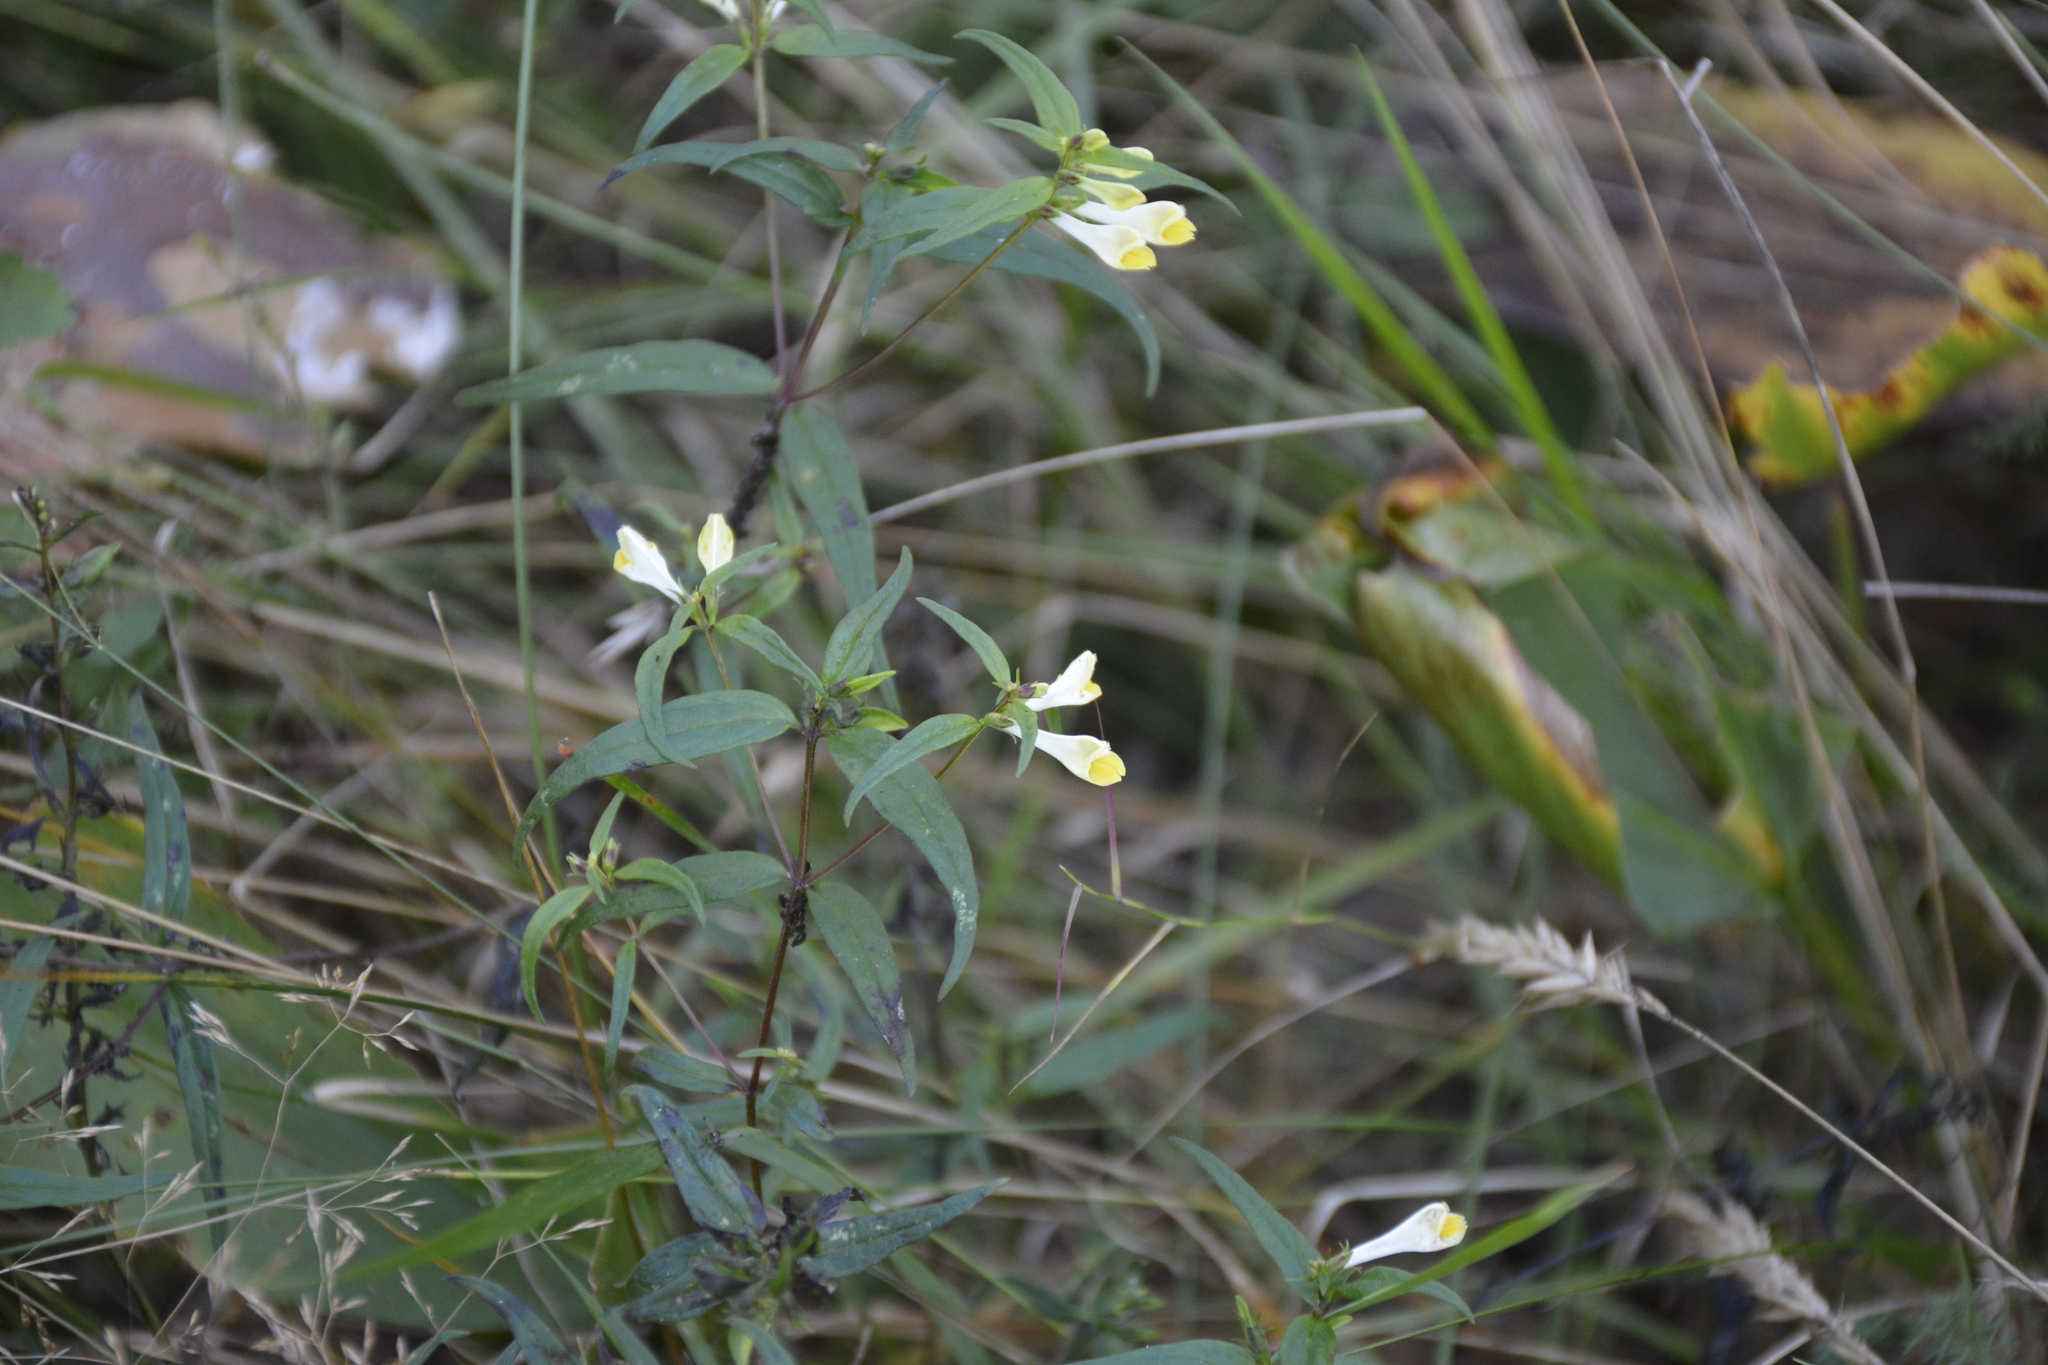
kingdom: Plantae
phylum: Tracheophyta
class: Magnoliopsida
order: Lamiales
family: Orobanchaceae
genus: Melampyrum
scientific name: Melampyrum pratense
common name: Common cow-wheat
